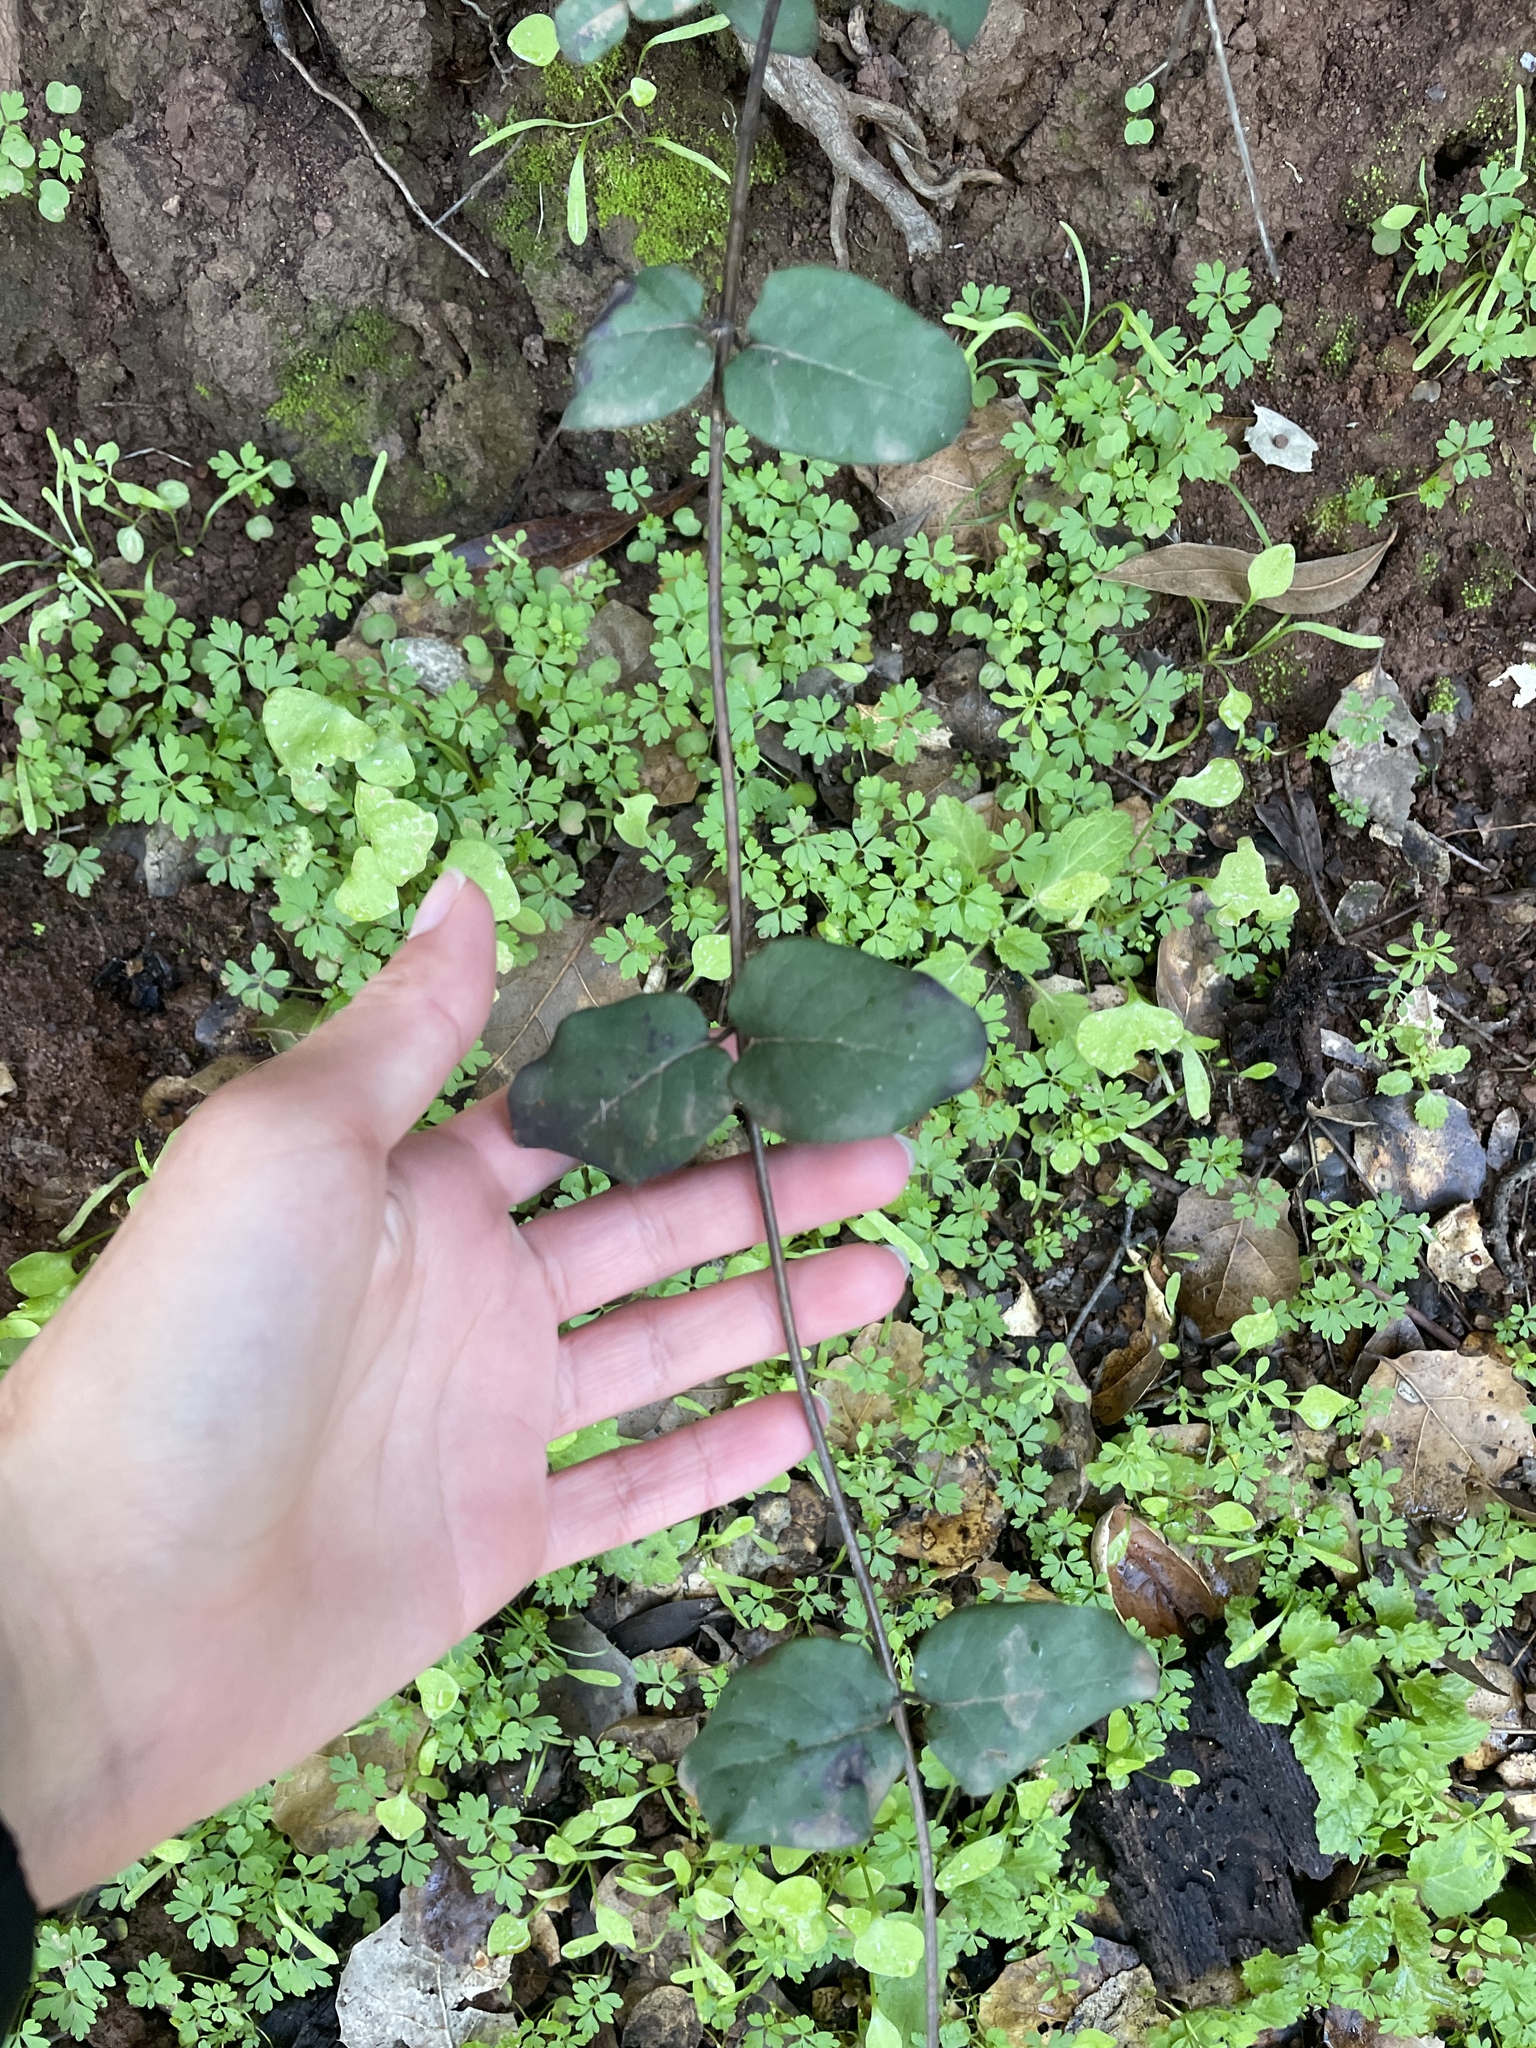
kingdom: Plantae
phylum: Tracheophyta
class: Magnoliopsida
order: Dipsacales
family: Caprifoliaceae
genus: Lonicera
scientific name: Lonicera hispidula
